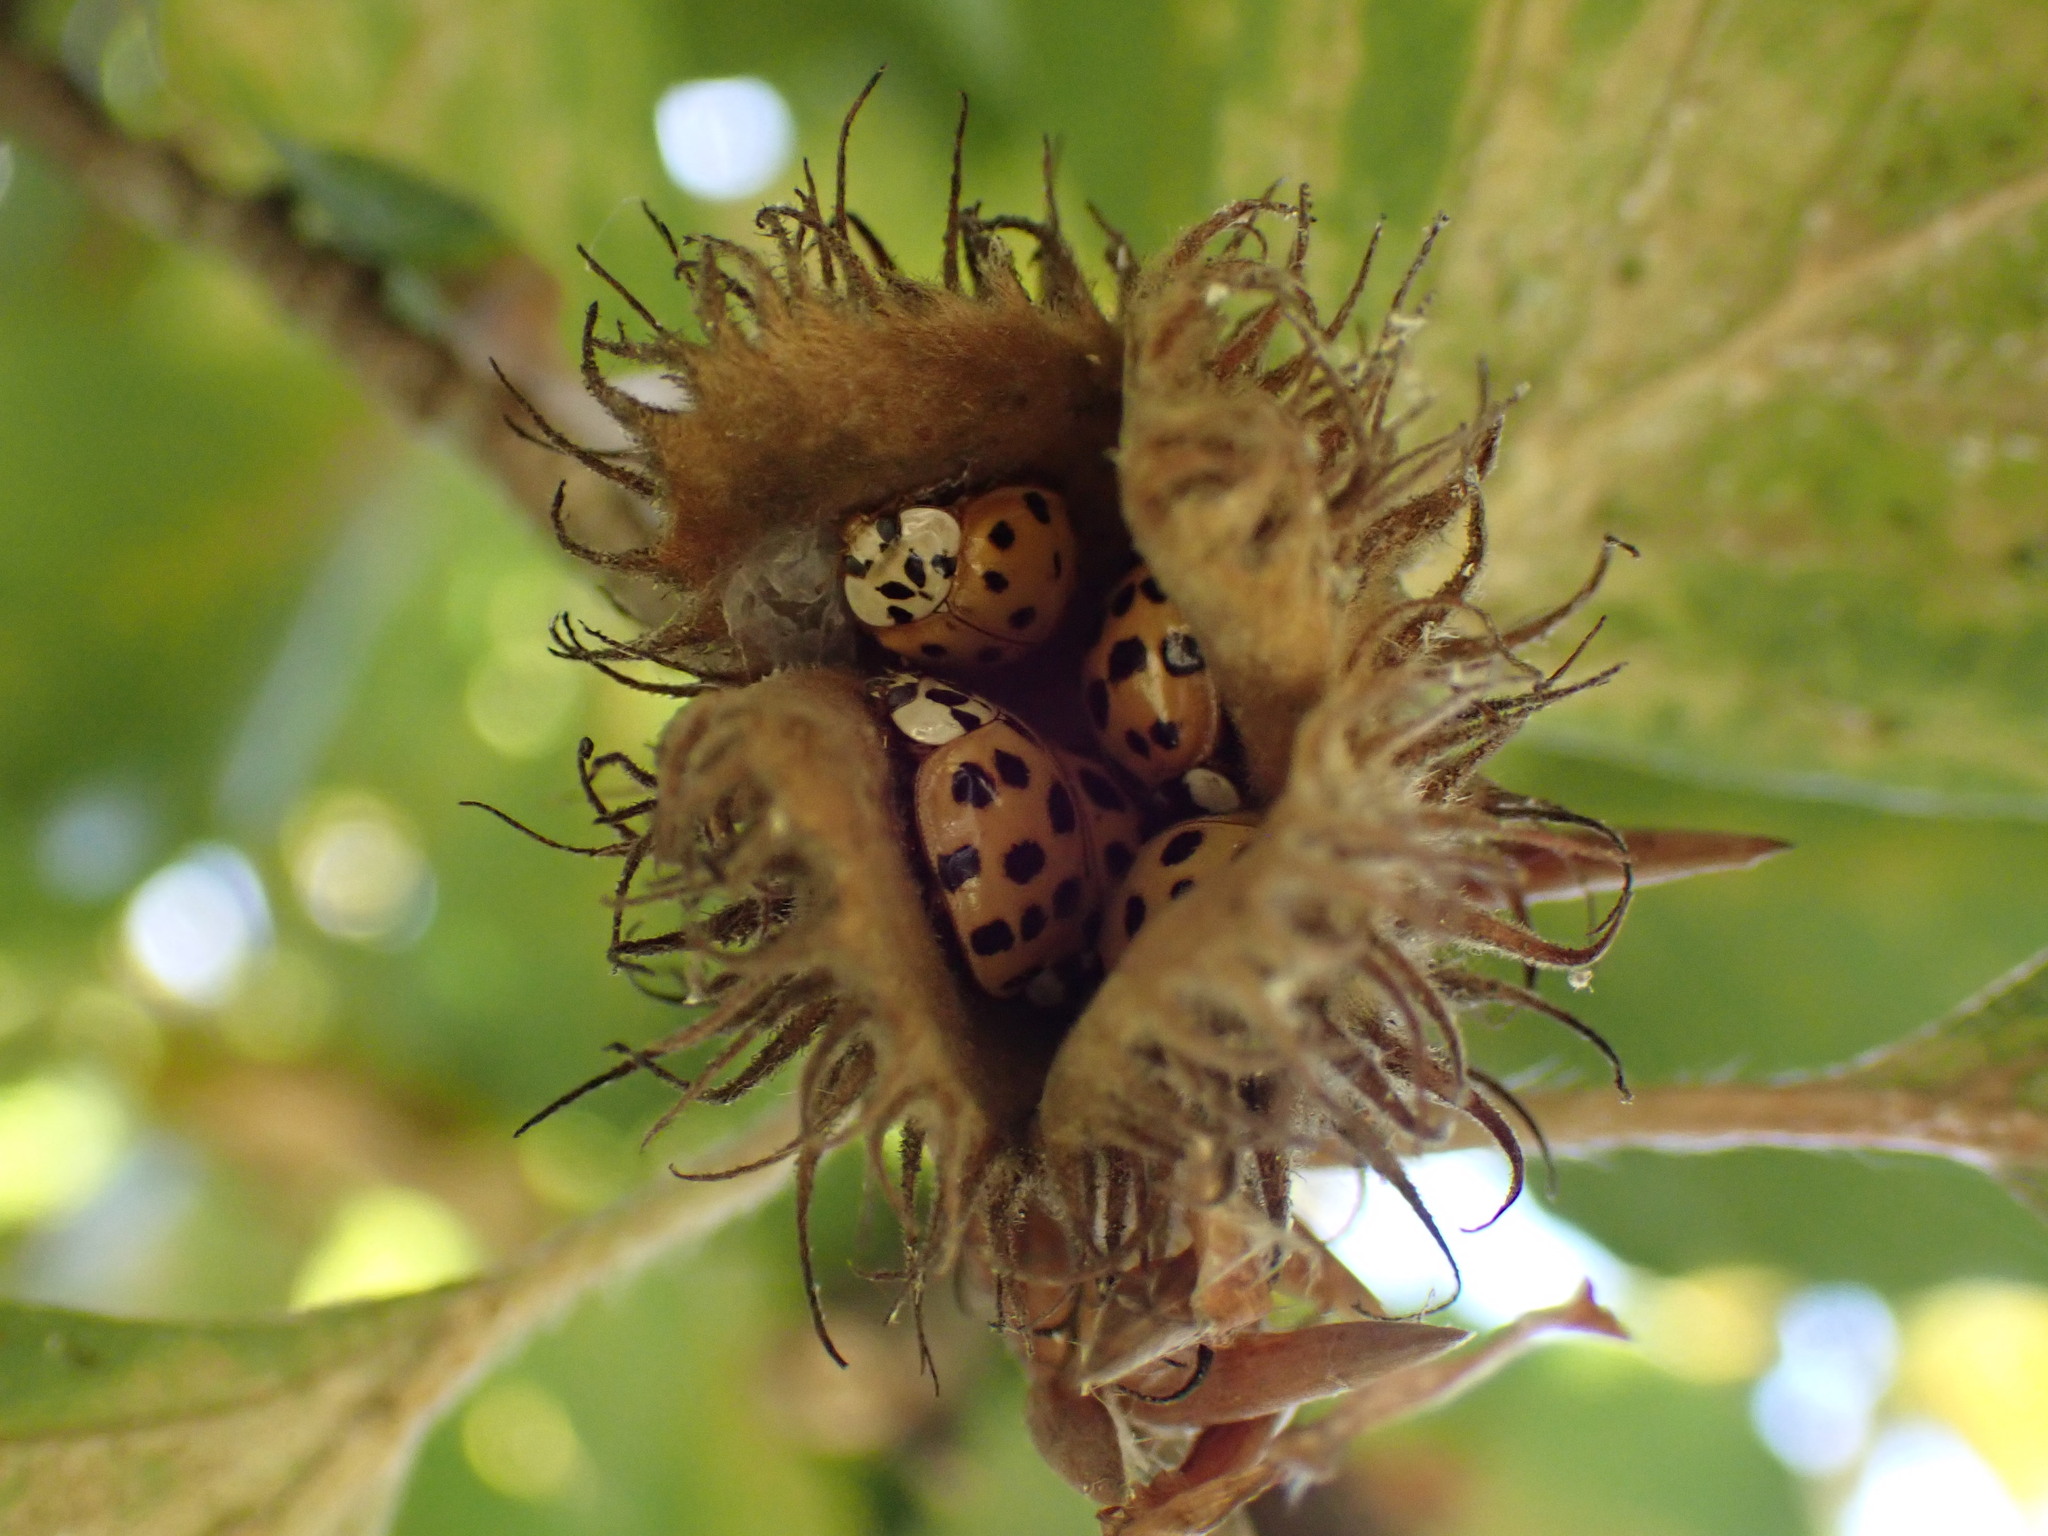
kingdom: Animalia
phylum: Arthropoda
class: Insecta
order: Coleoptera
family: Coccinellidae
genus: Harmonia
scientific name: Harmonia axyridis
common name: Harlequin ladybird
